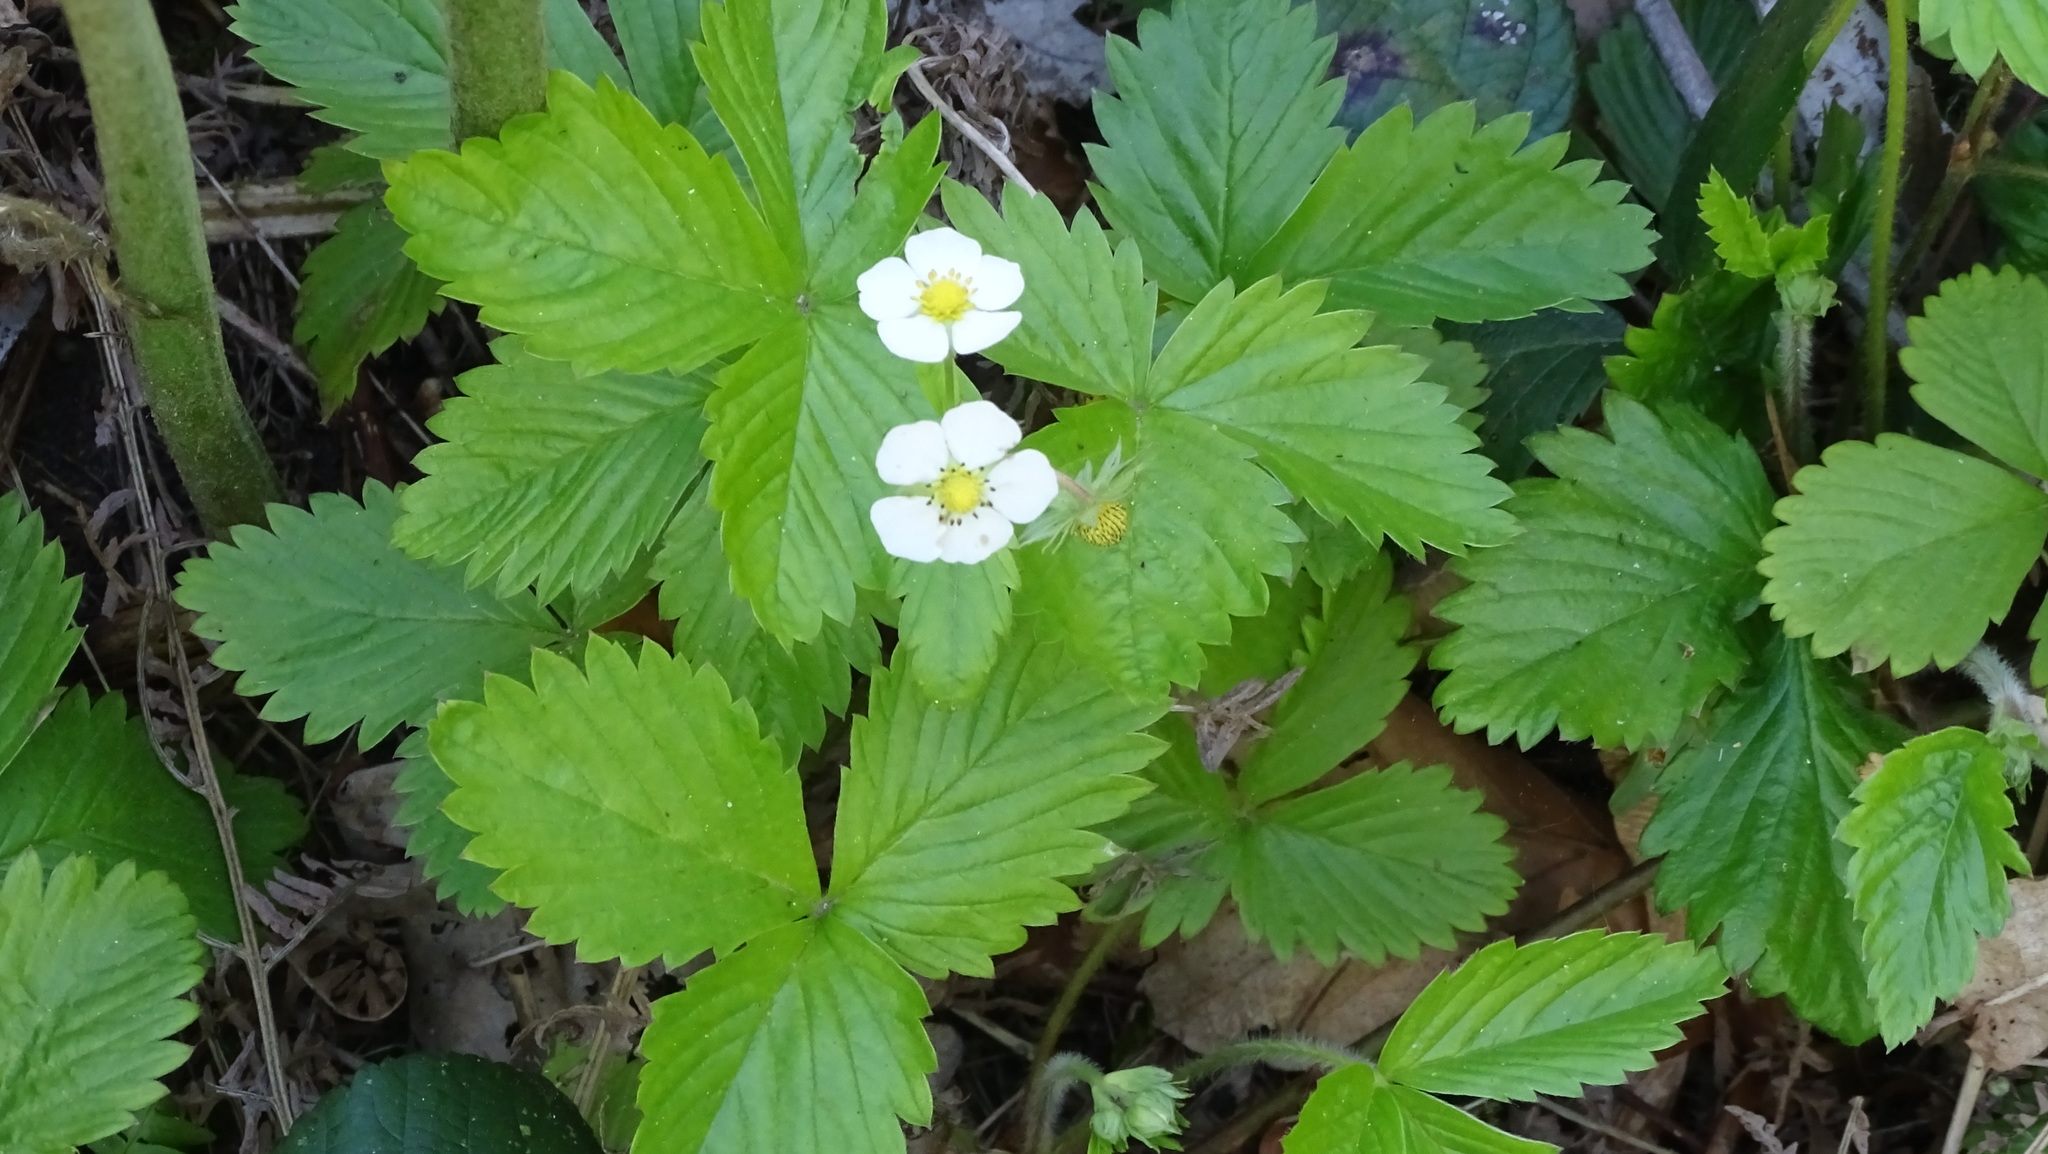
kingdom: Plantae
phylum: Tracheophyta
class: Magnoliopsida
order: Rosales
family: Rosaceae
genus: Fragaria
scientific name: Fragaria vesca
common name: Wild strawberry
